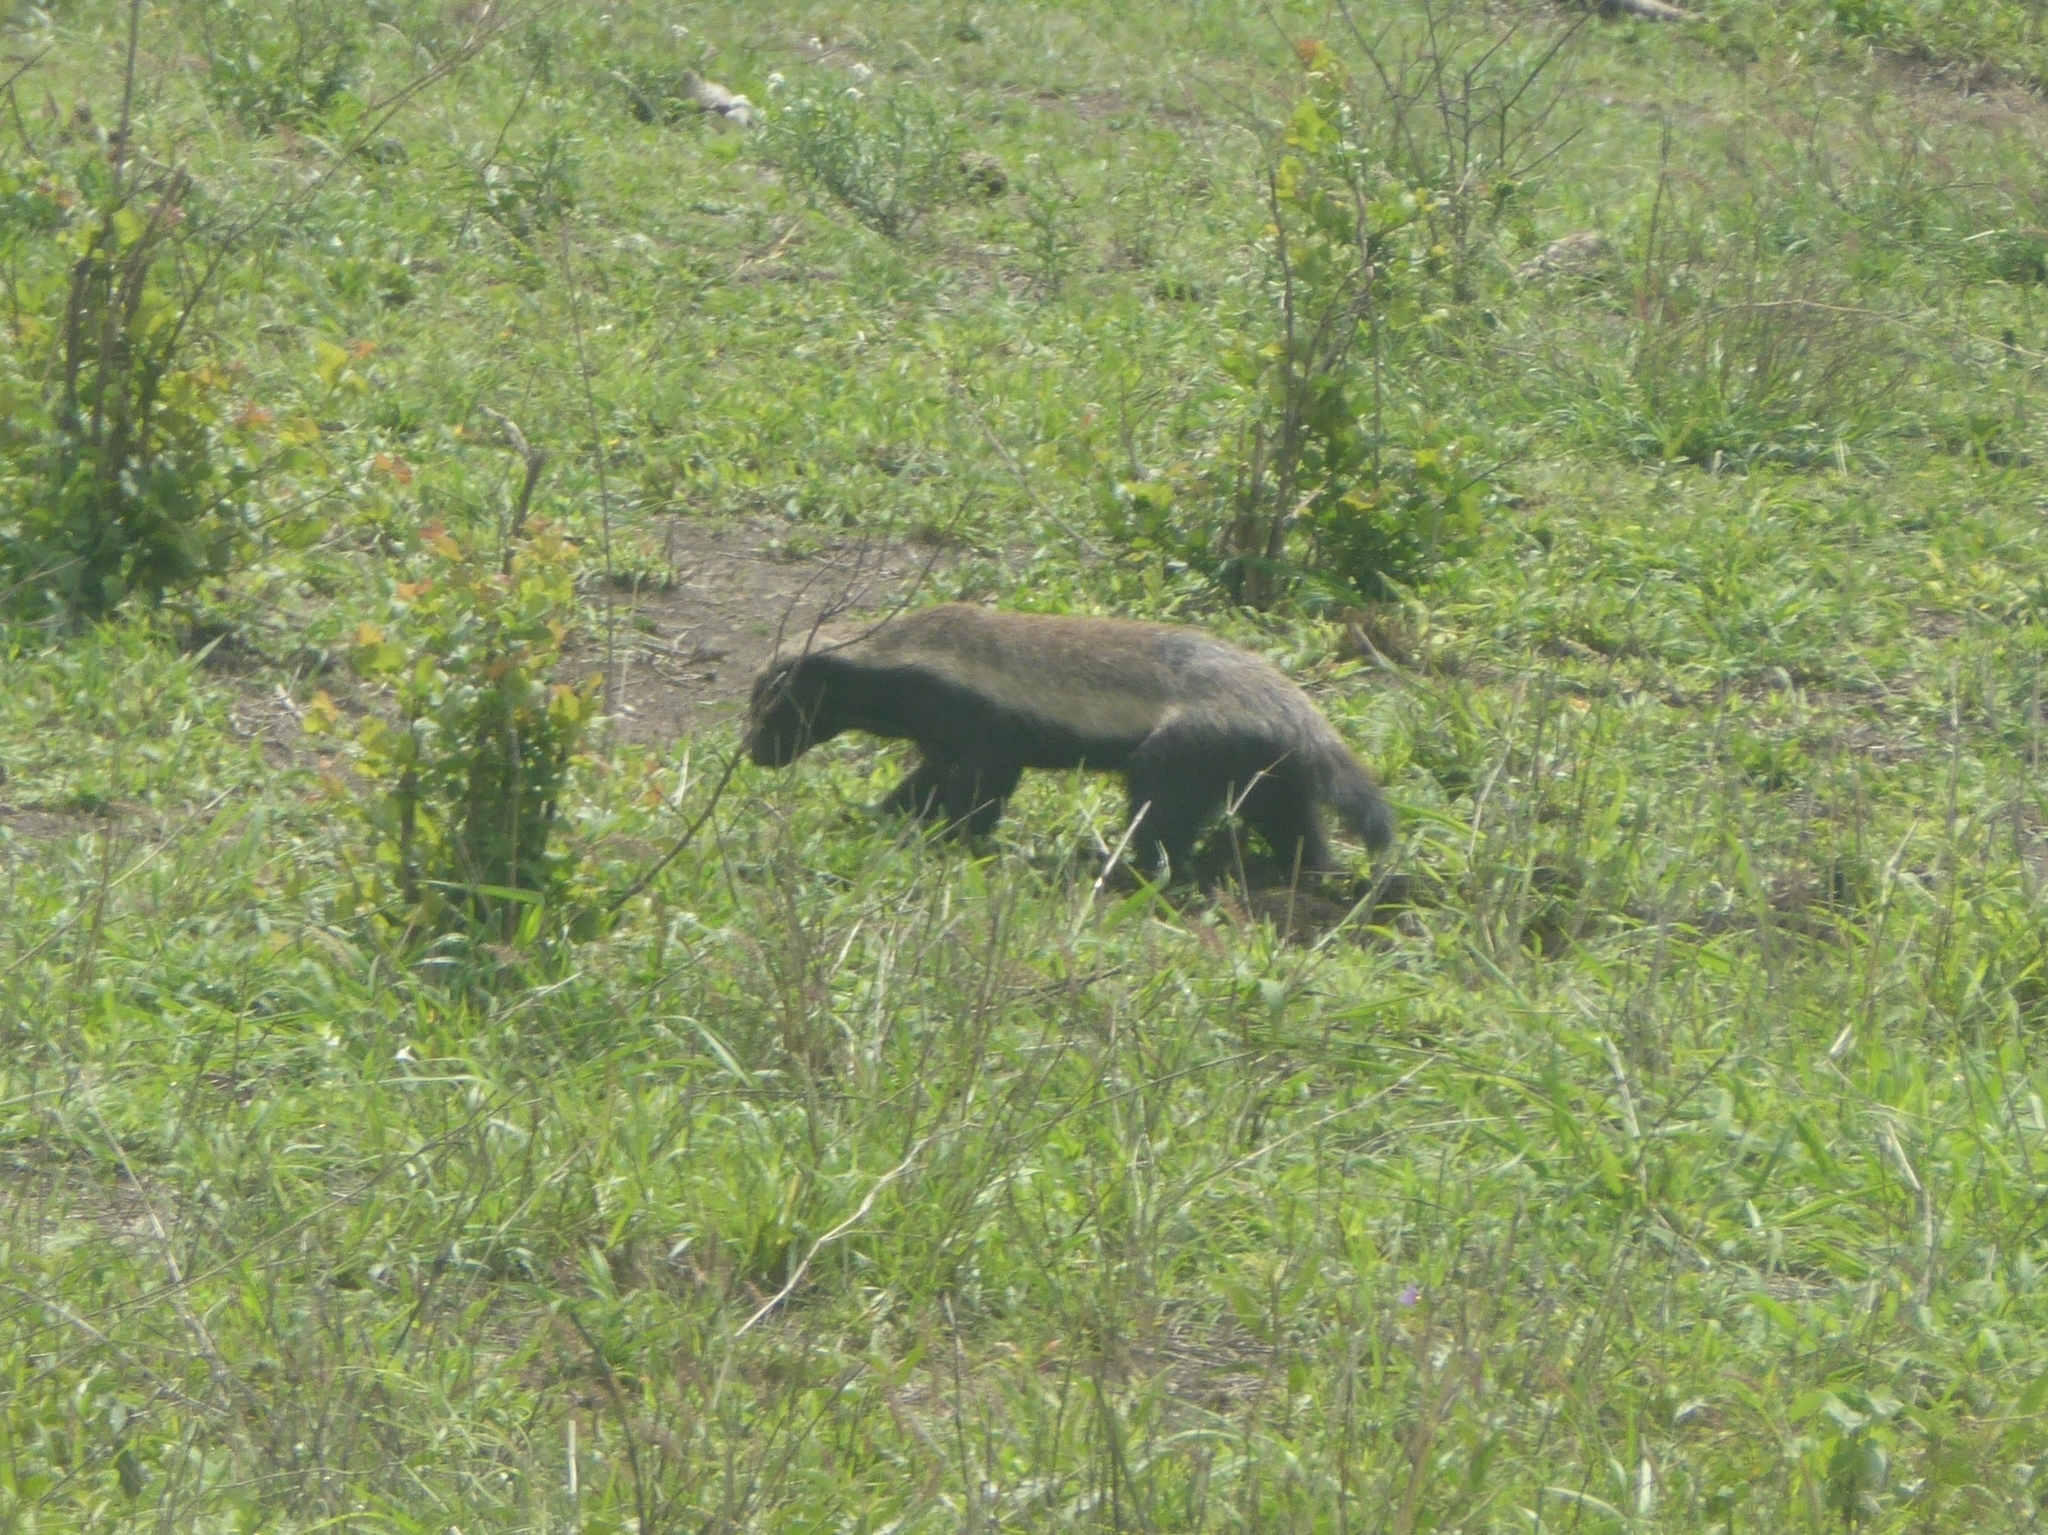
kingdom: Animalia
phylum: Chordata
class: Mammalia
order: Carnivora
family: Mustelidae
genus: Mellivora
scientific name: Mellivora capensis
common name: Honey badger
